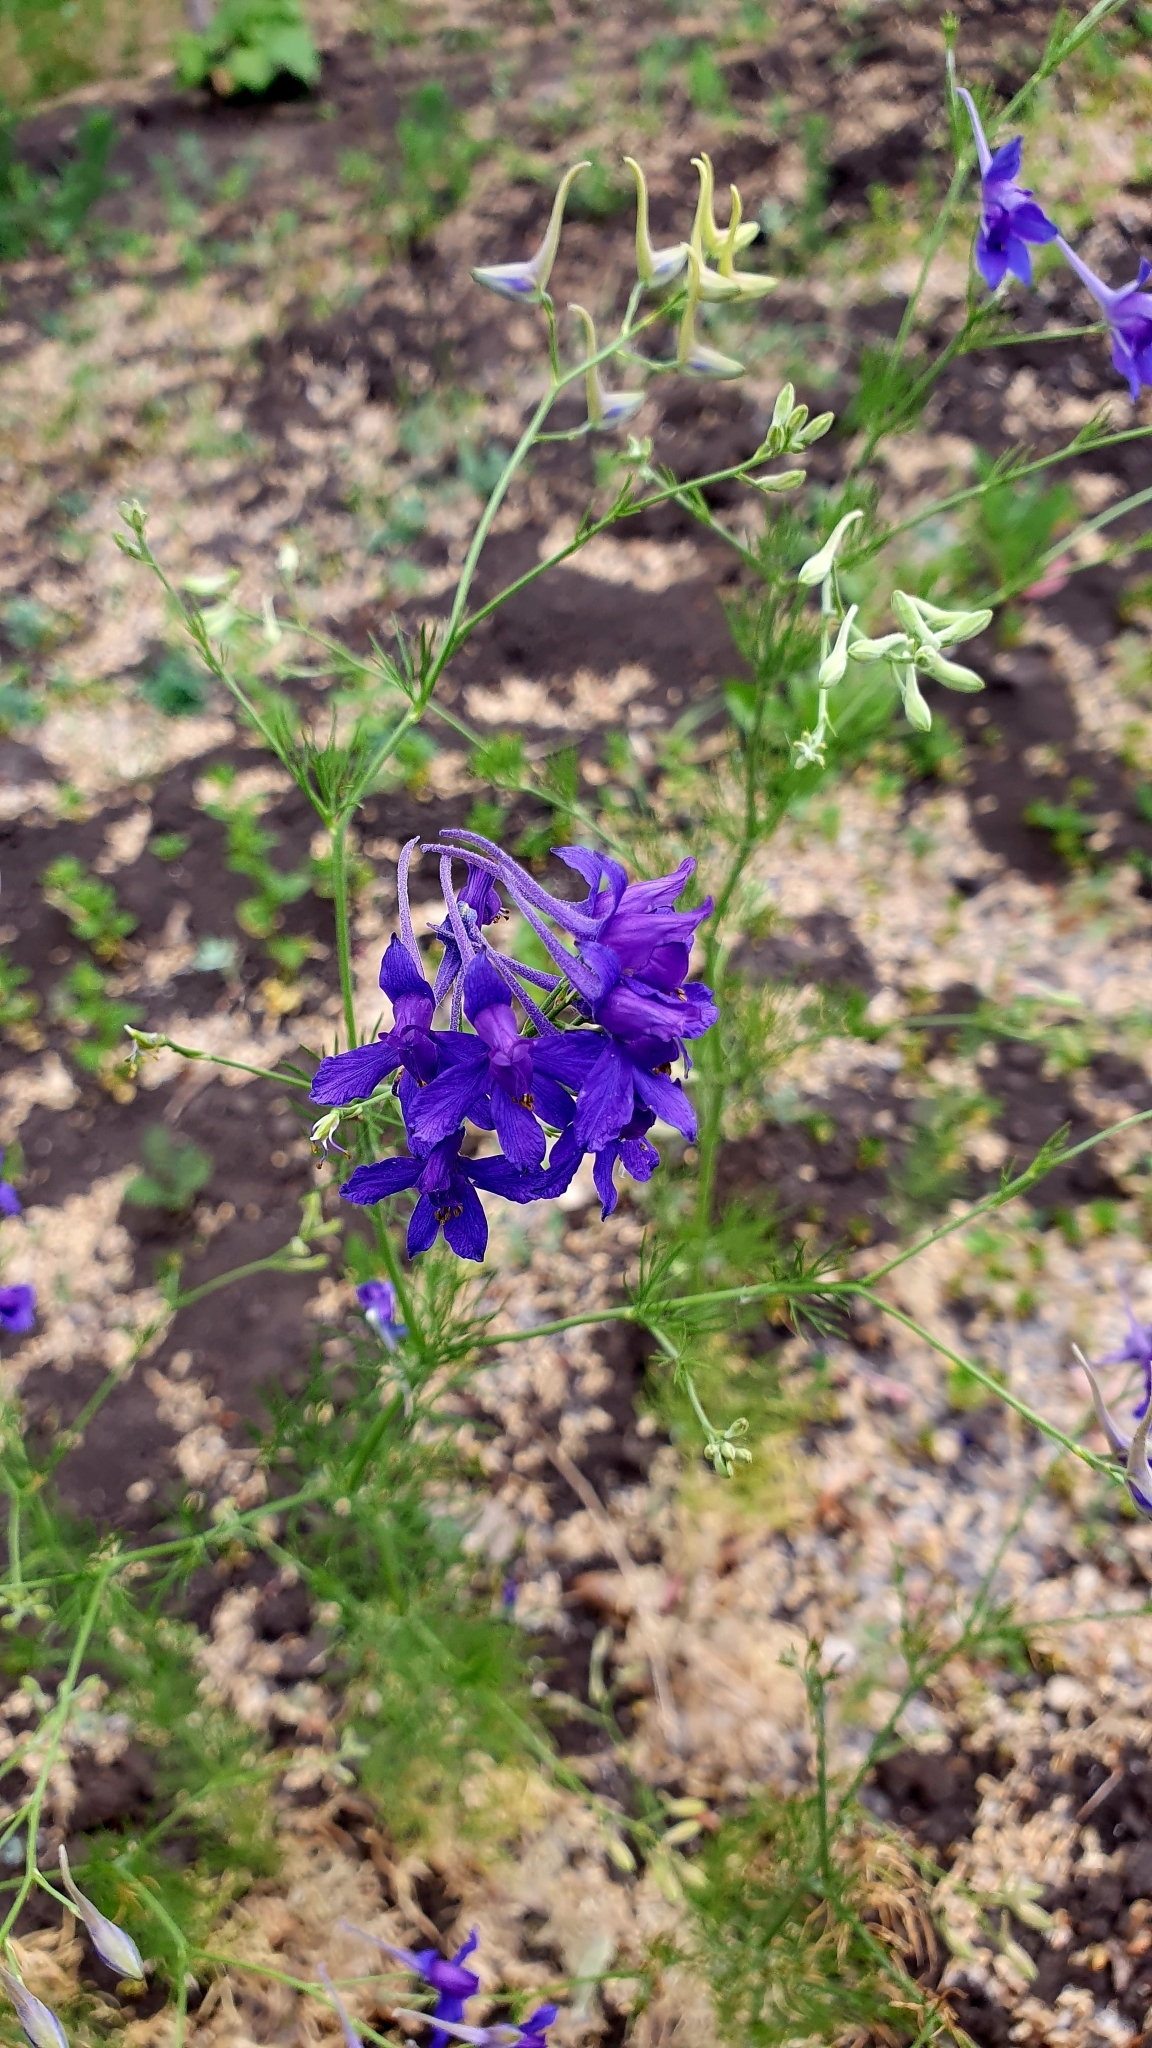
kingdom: Plantae
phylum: Tracheophyta
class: Magnoliopsida
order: Ranunculales
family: Ranunculaceae
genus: Delphinium
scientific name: Delphinium consolida
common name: Branching larkspur
